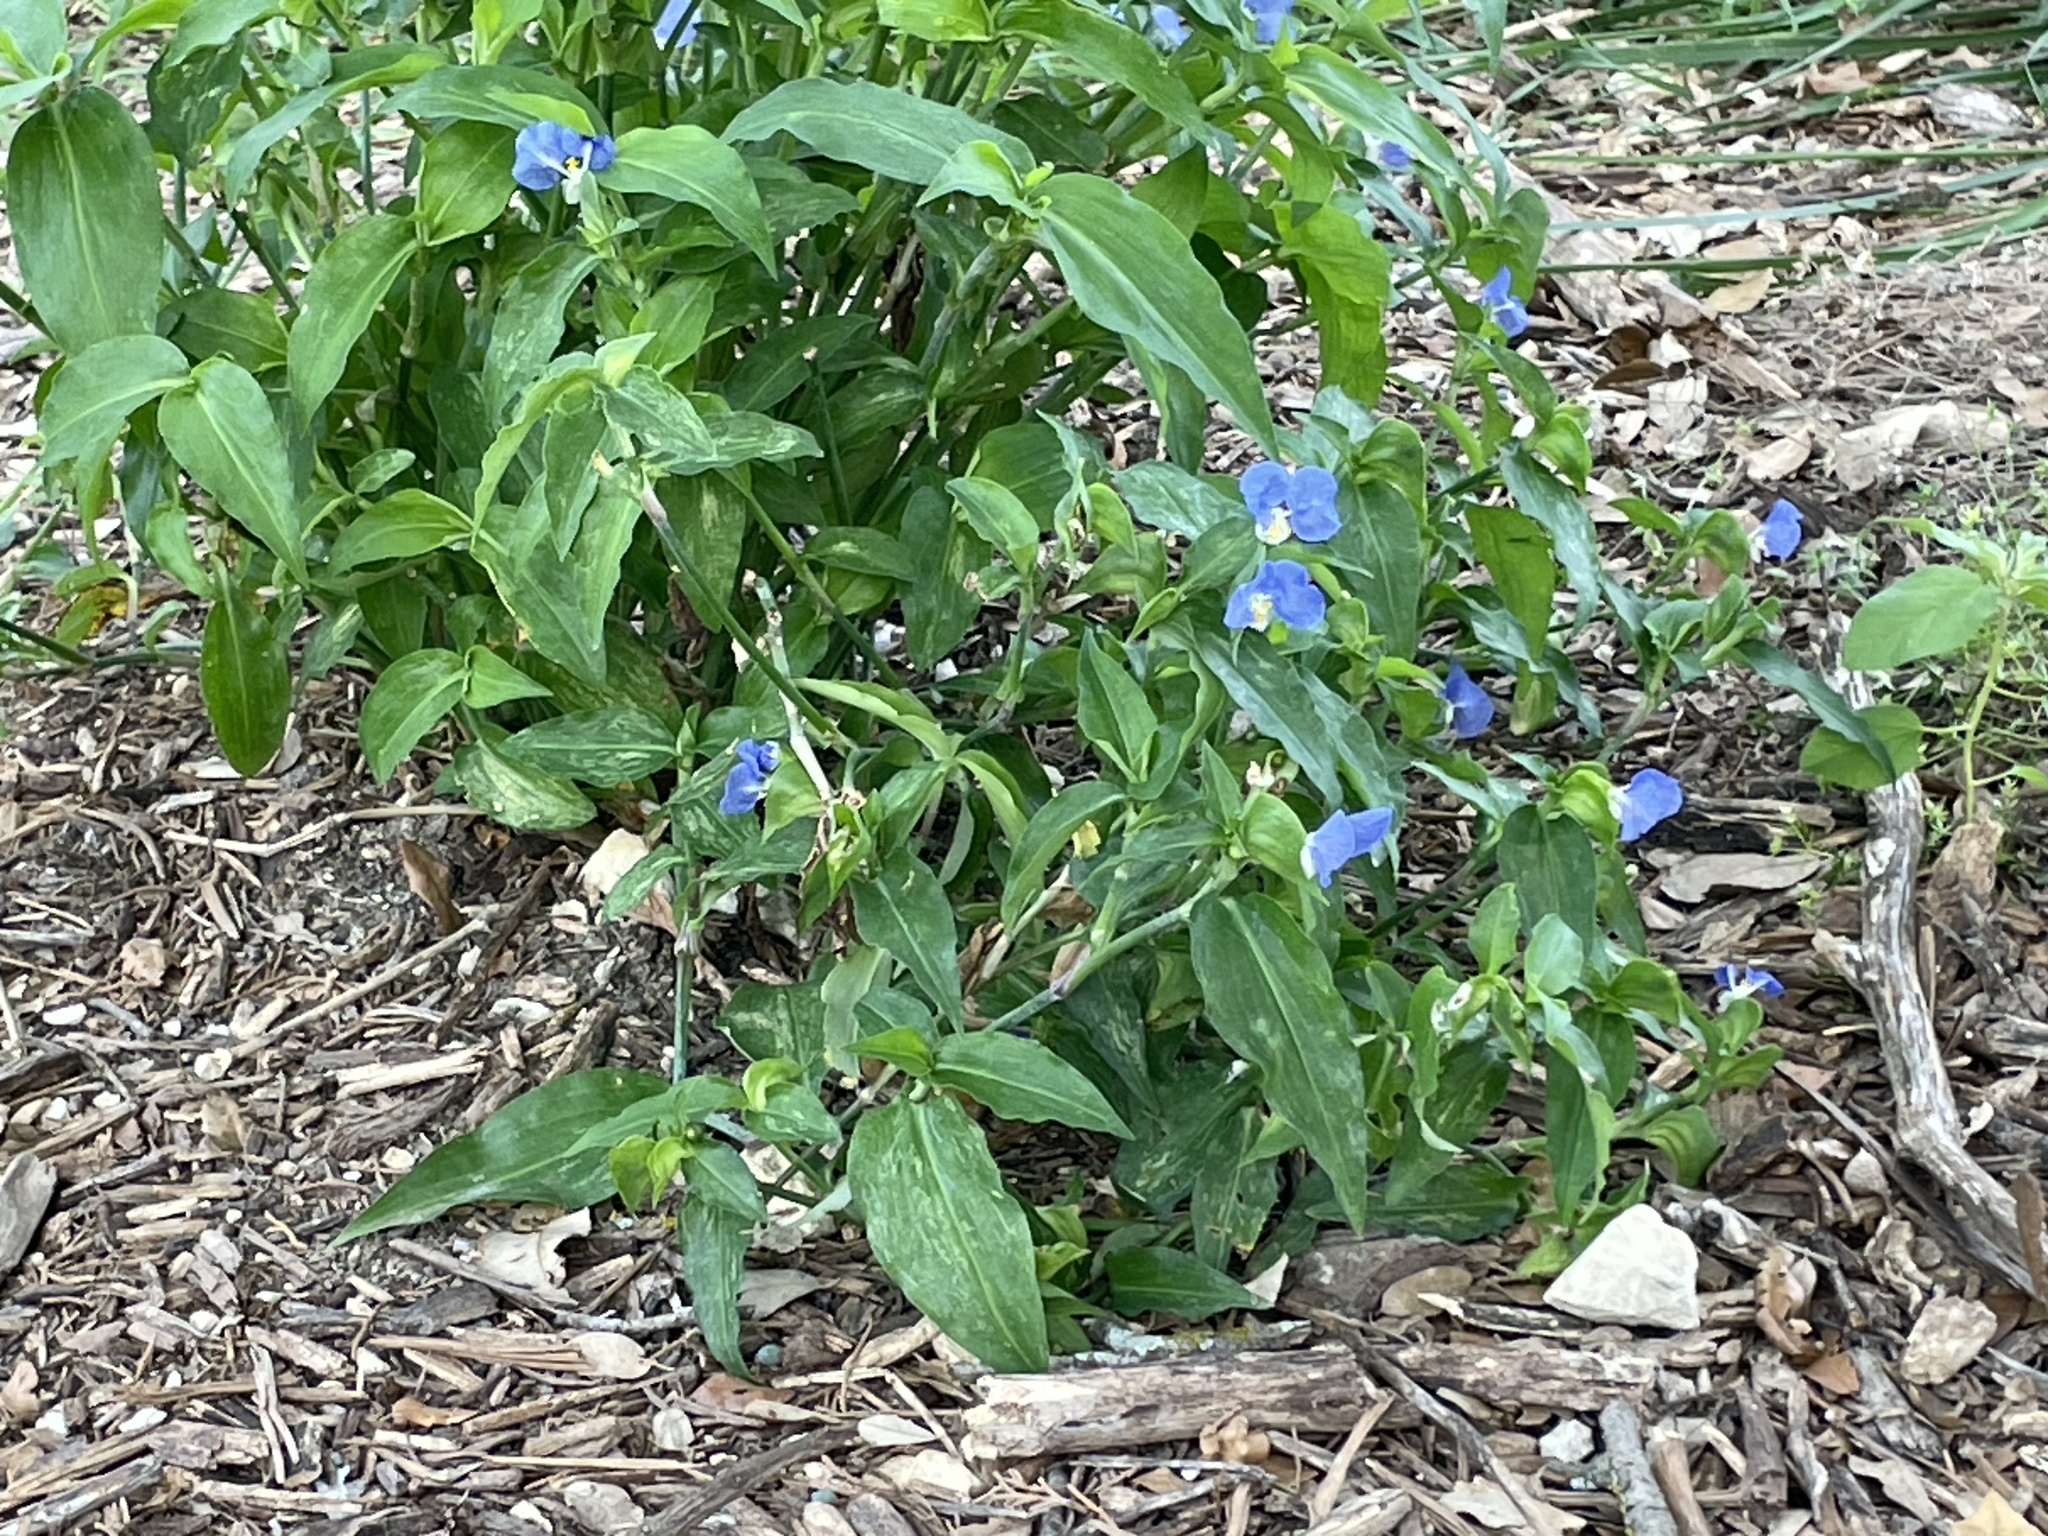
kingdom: Plantae
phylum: Tracheophyta
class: Liliopsida
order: Commelinales
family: Commelinaceae
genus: Commelina
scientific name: Commelina erecta
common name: Blousel blommetjie
